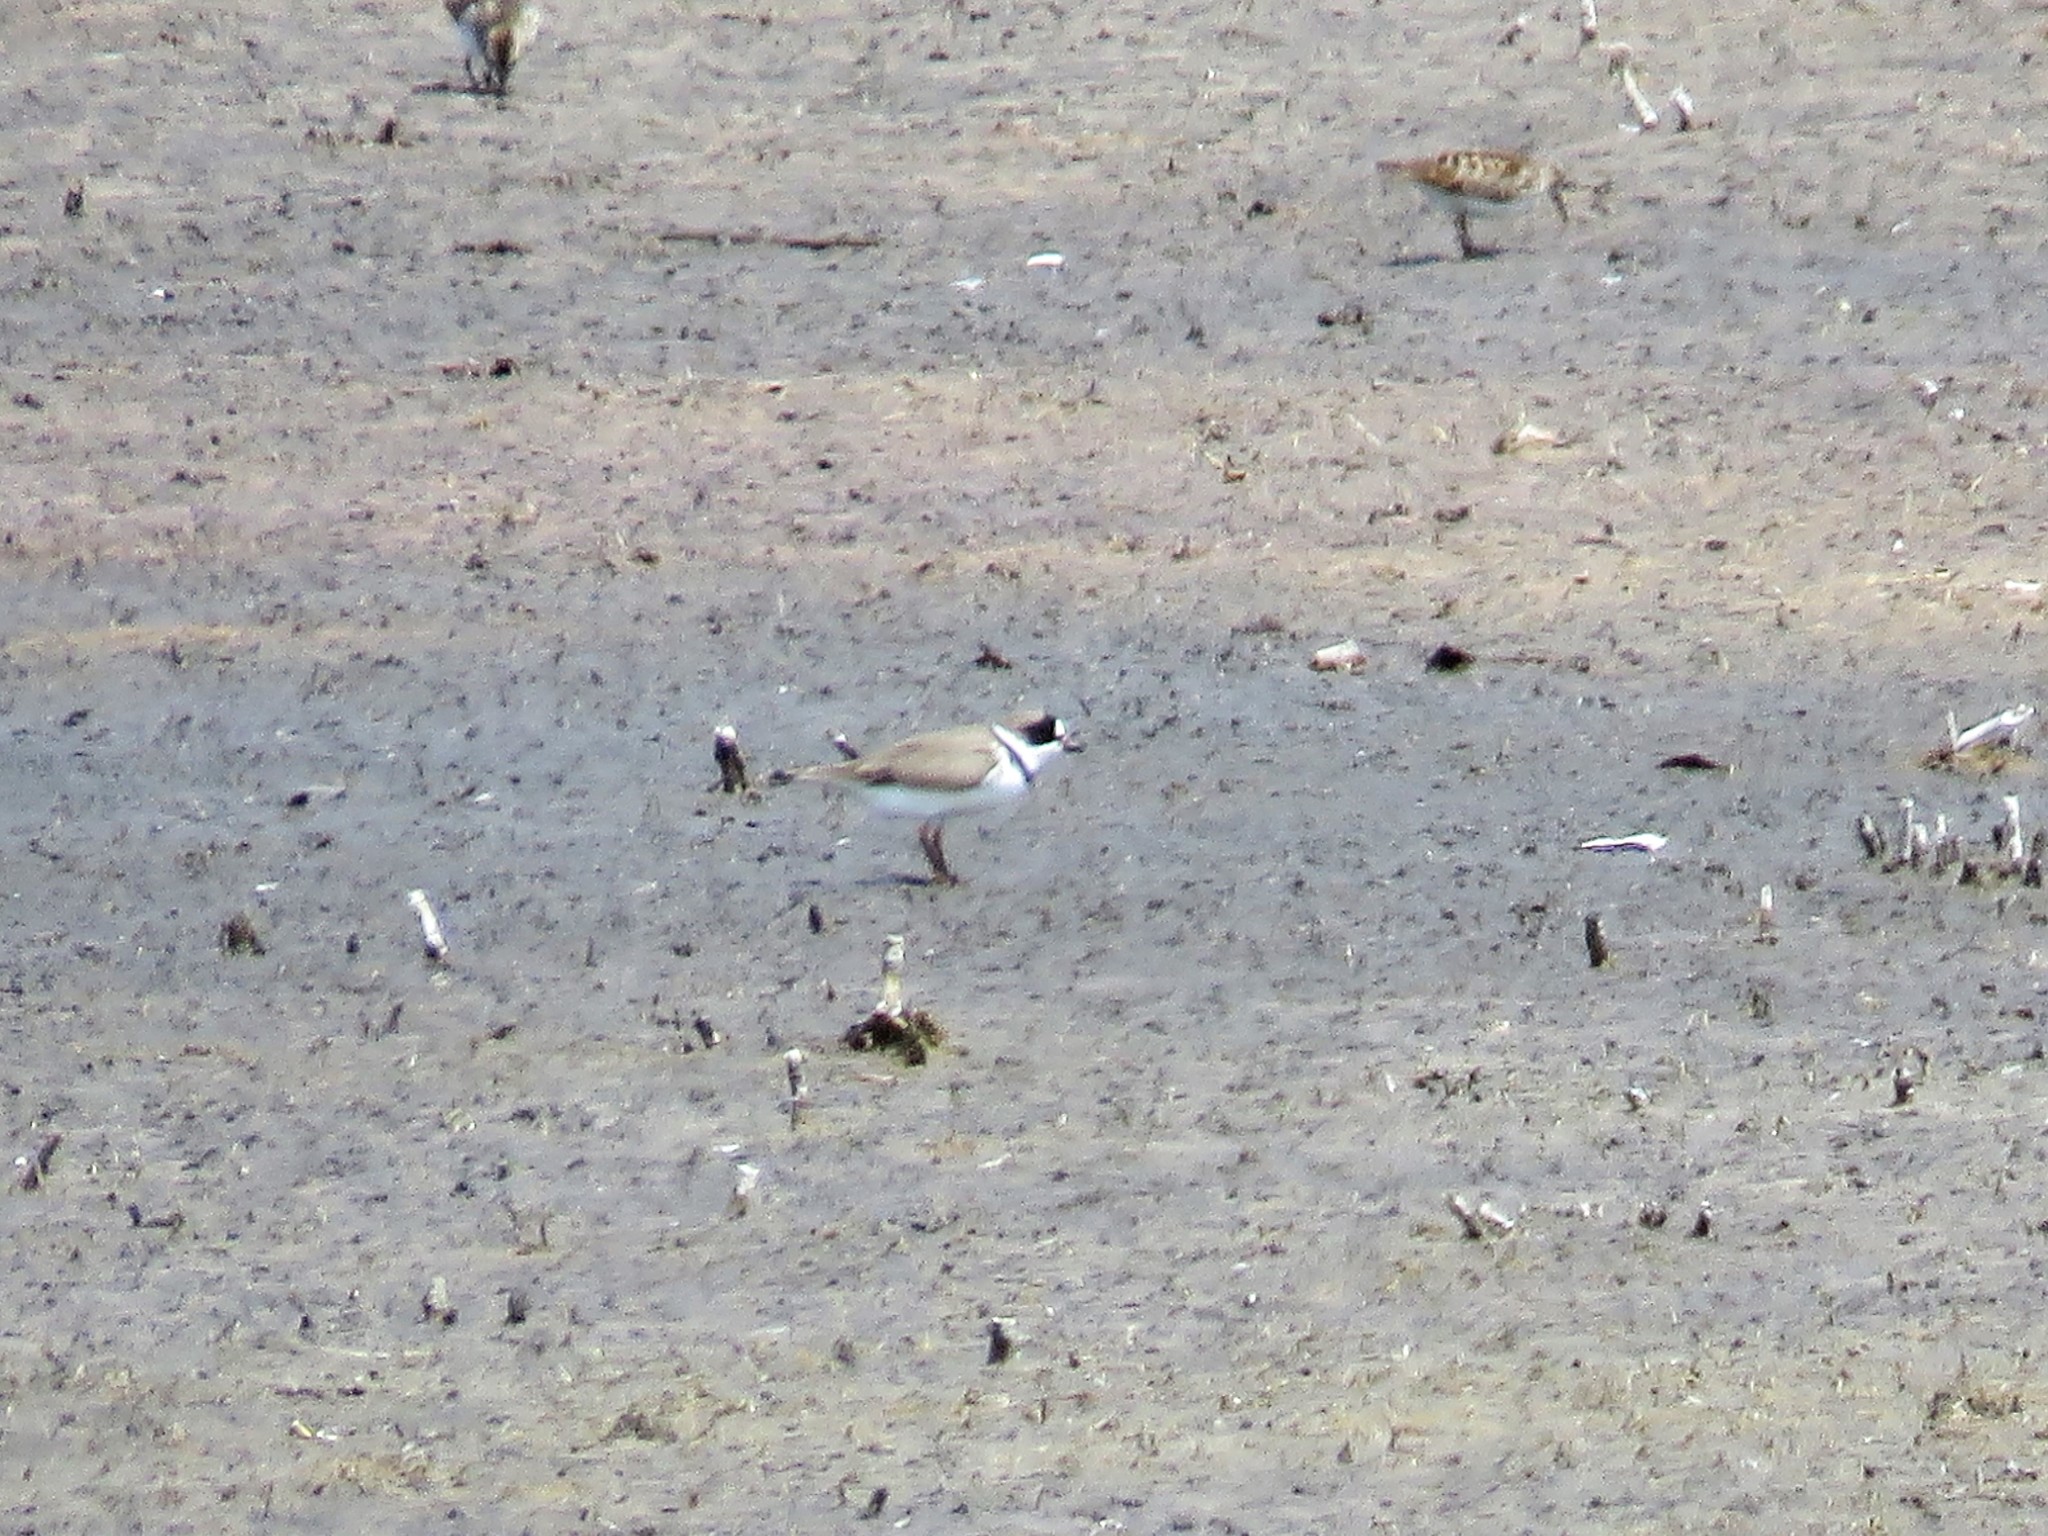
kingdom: Animalia
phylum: Chordata
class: Aves
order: Charadriiformes
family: Charadriidae
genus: Charadrius
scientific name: Charadrius semipalmatus
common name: Semipalmated plover
